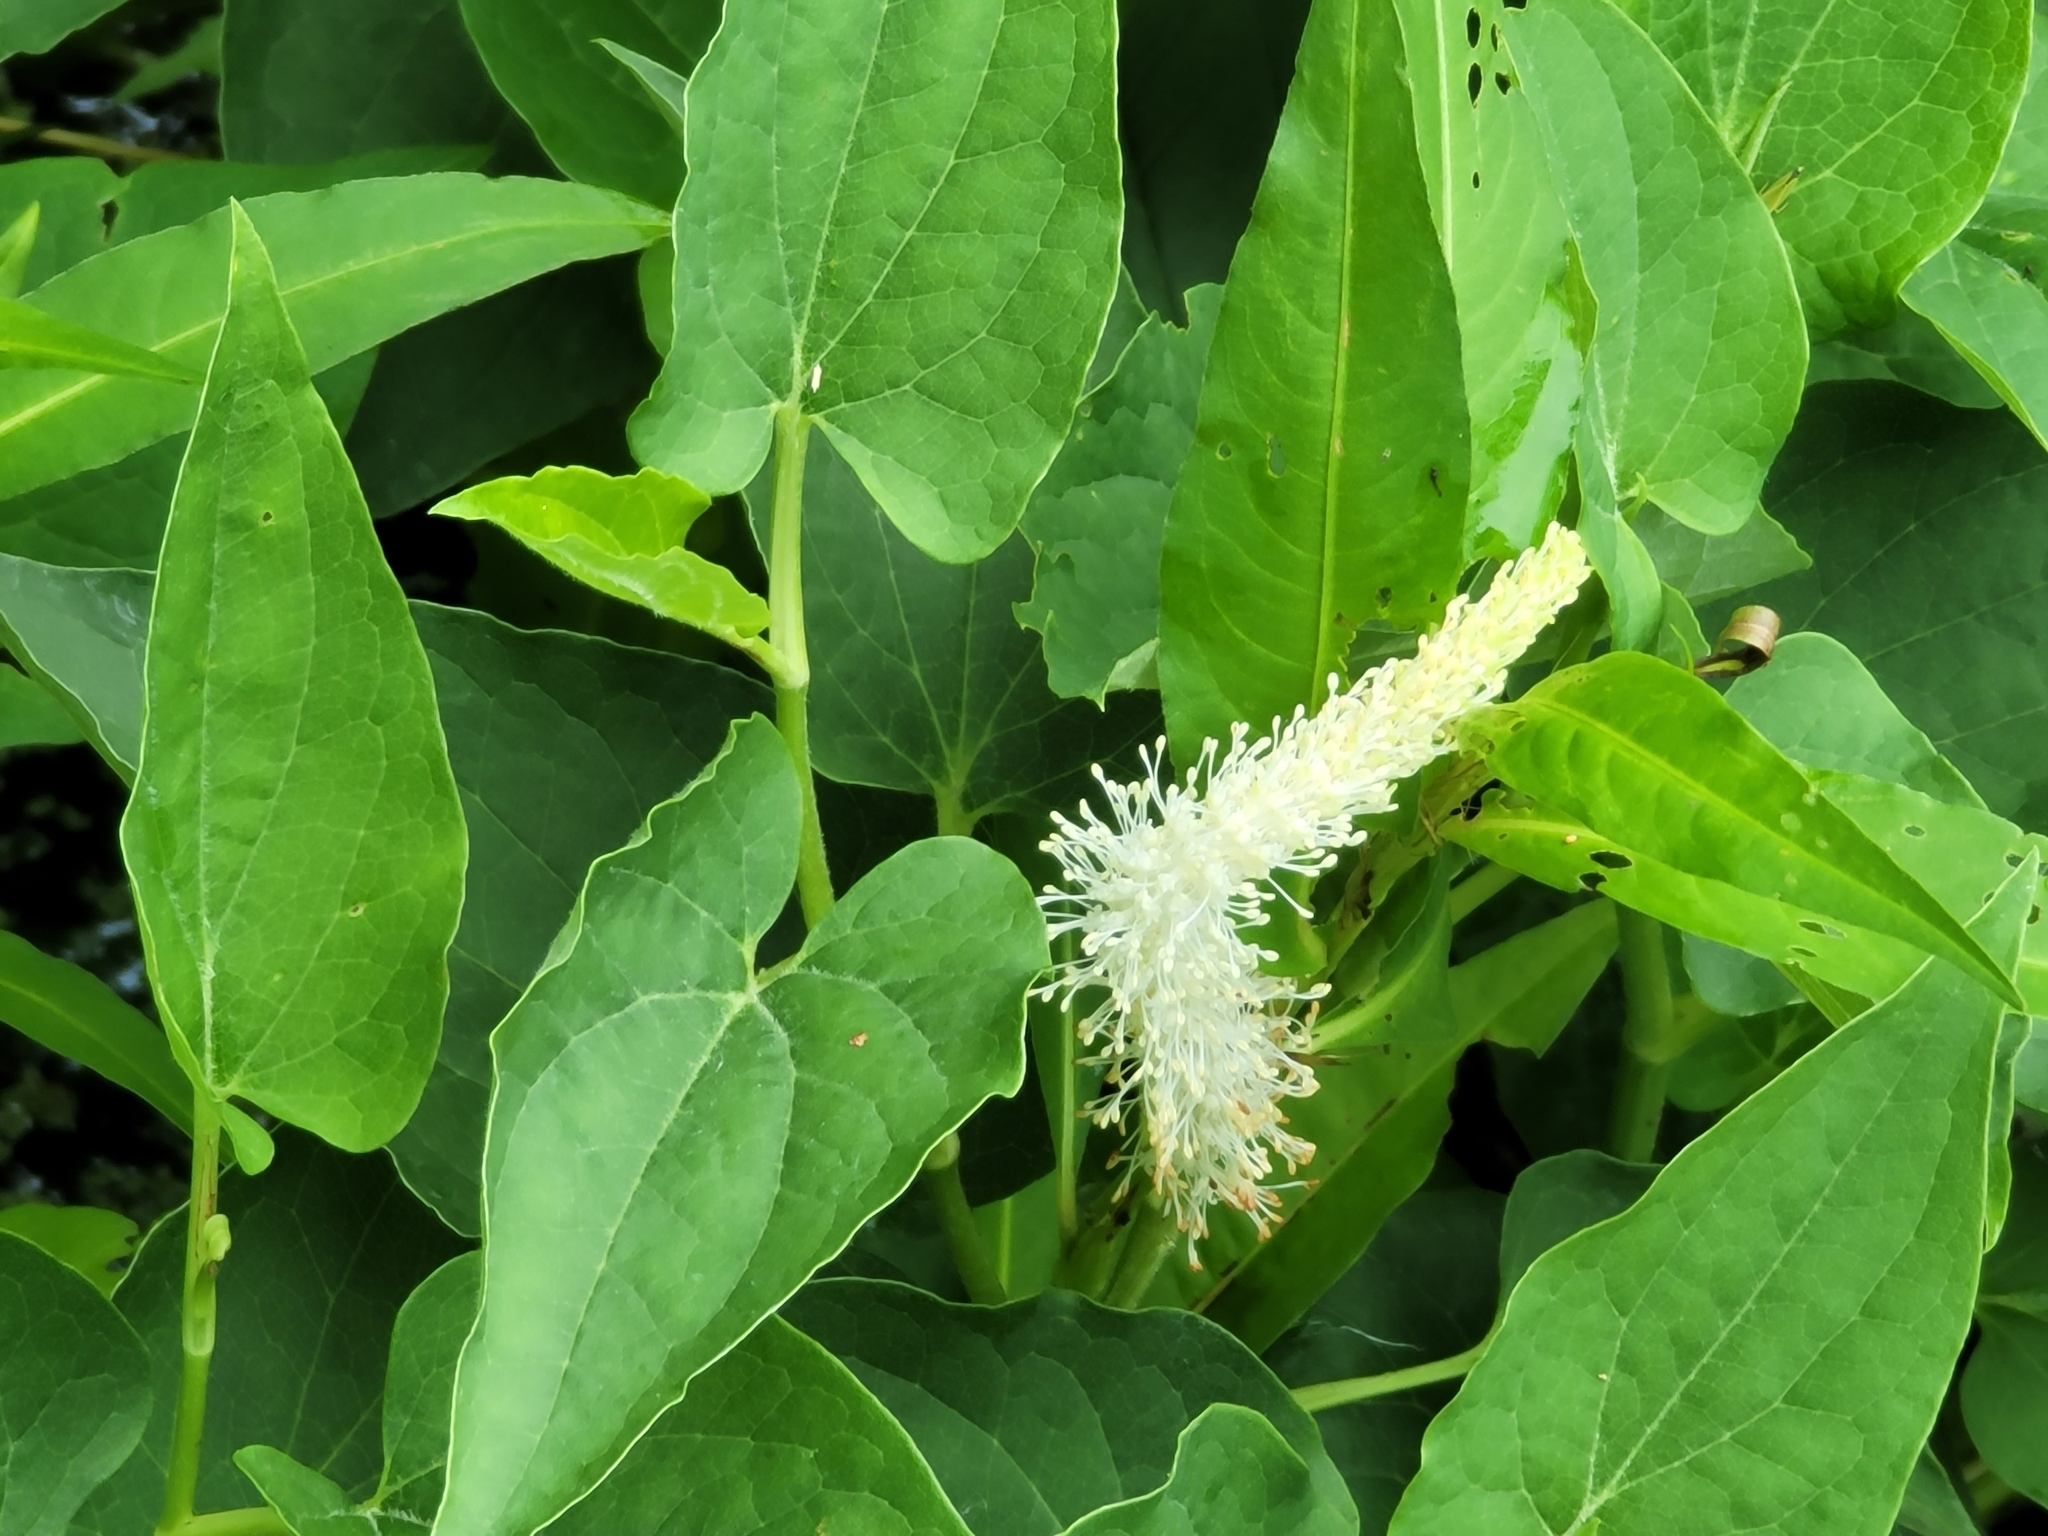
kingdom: Plantae
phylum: Tracheophyta
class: Magnoliopsida
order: Piperales
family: Saururaceae
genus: Saururus
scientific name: Saururus cernuus
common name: Lizard's-tail
